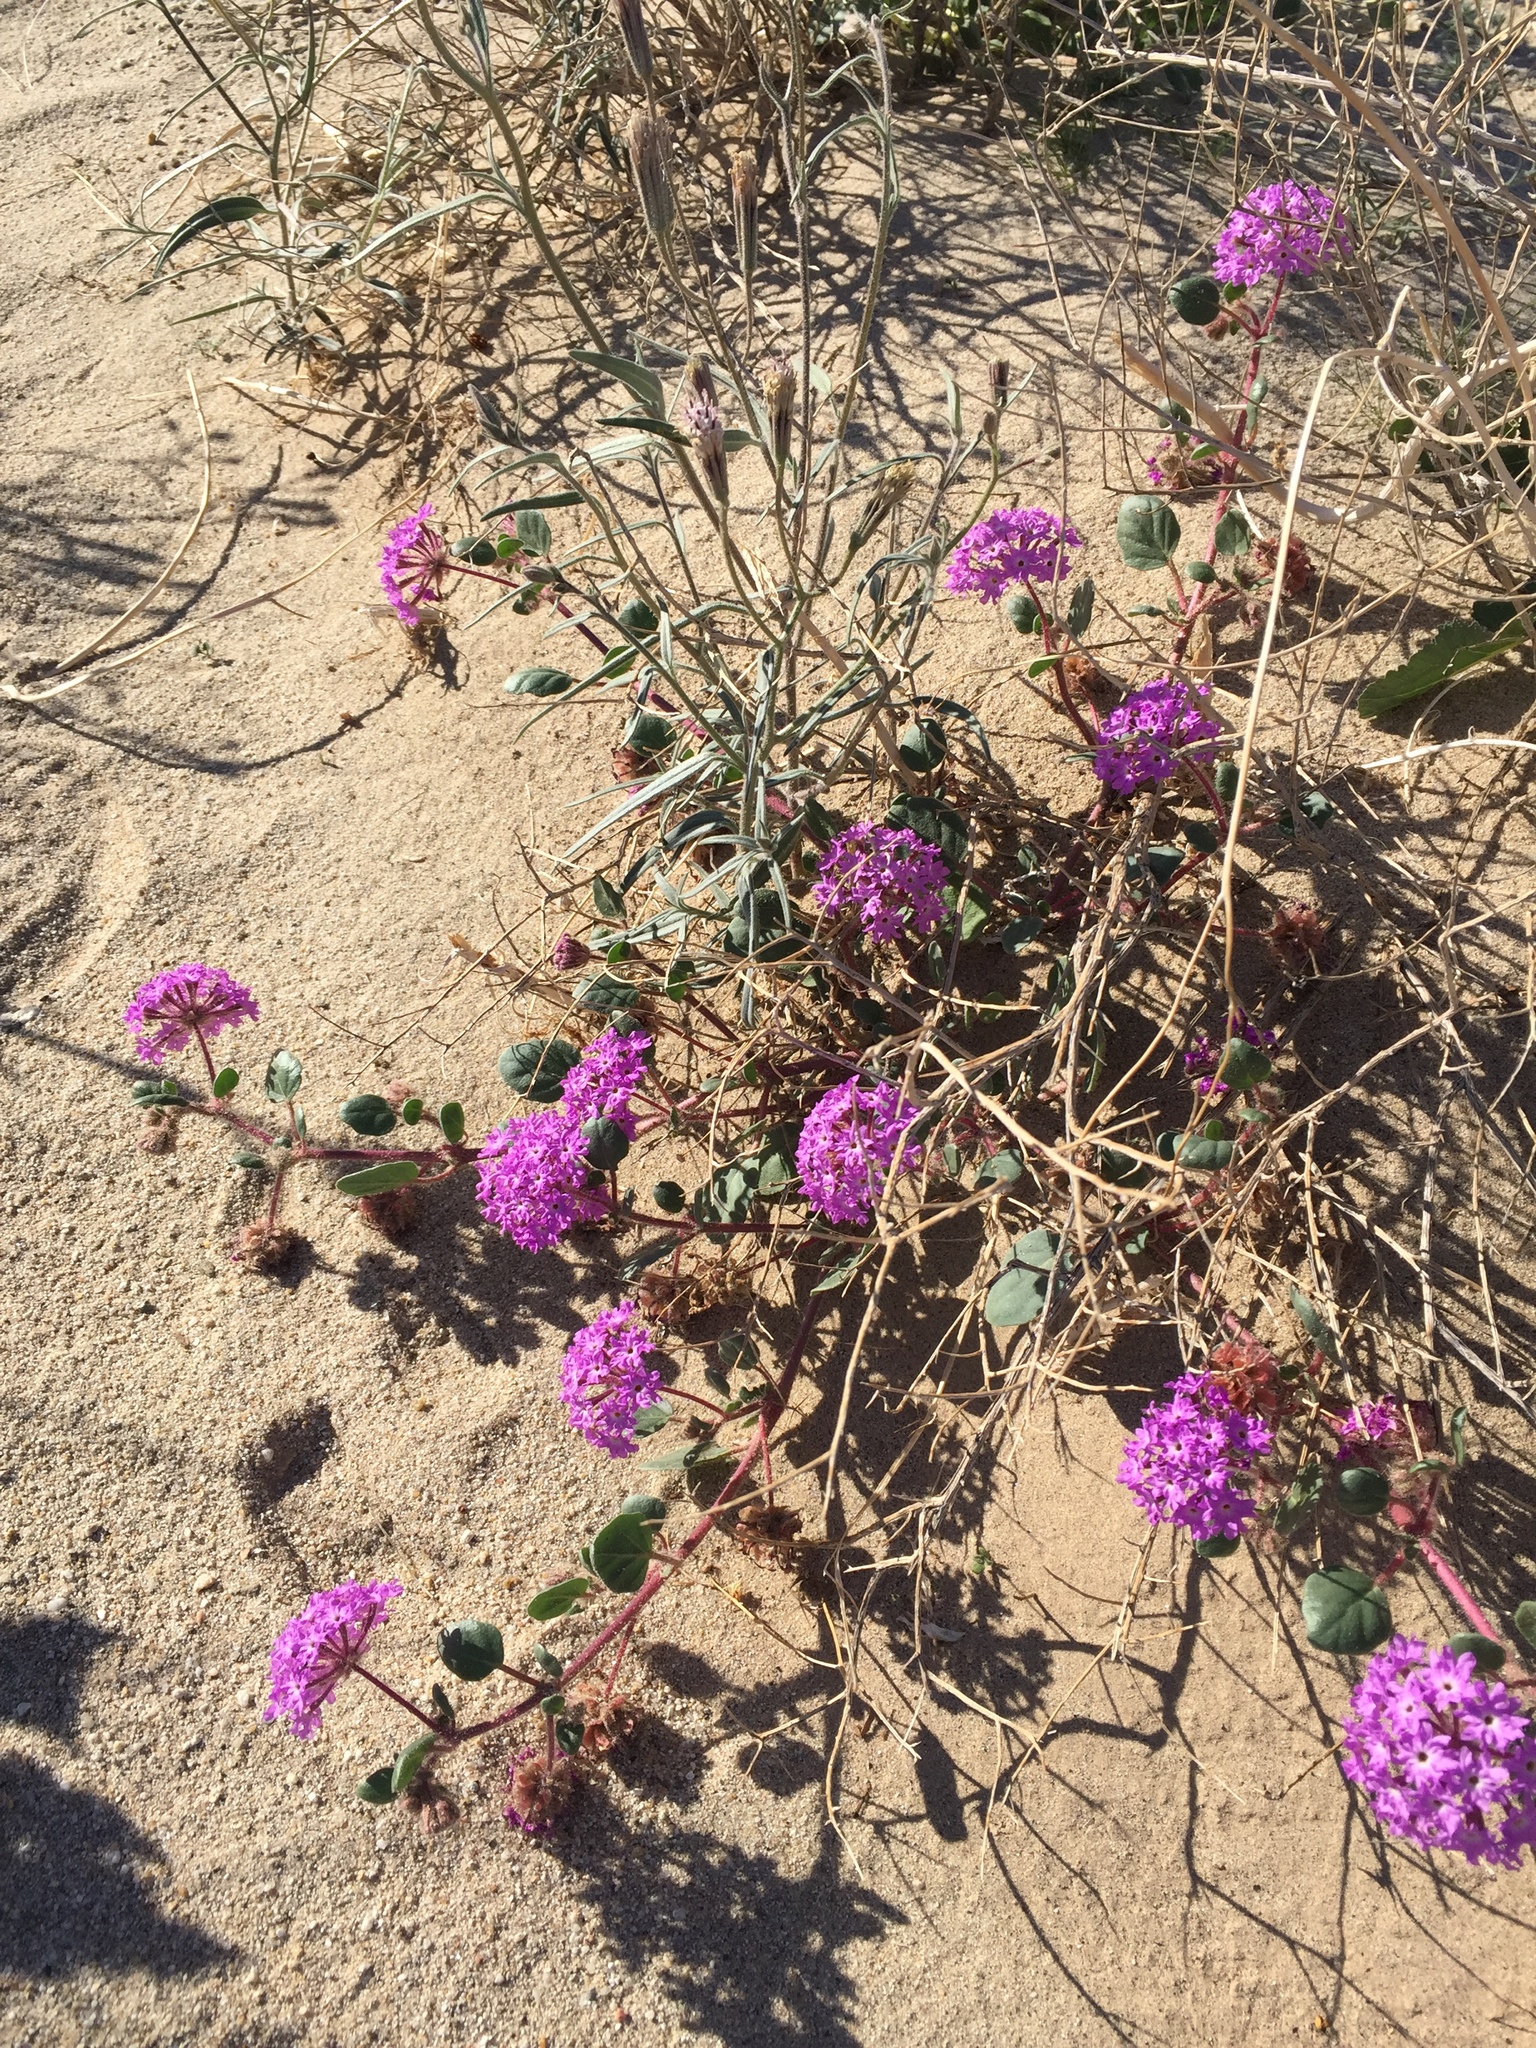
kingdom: Plantae
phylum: Tracheophyta
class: Magnoliopsida
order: Caryophyllales
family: Nyctaginaceae
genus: Abronia
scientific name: Abronia villosa
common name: Desert sand-verbena
